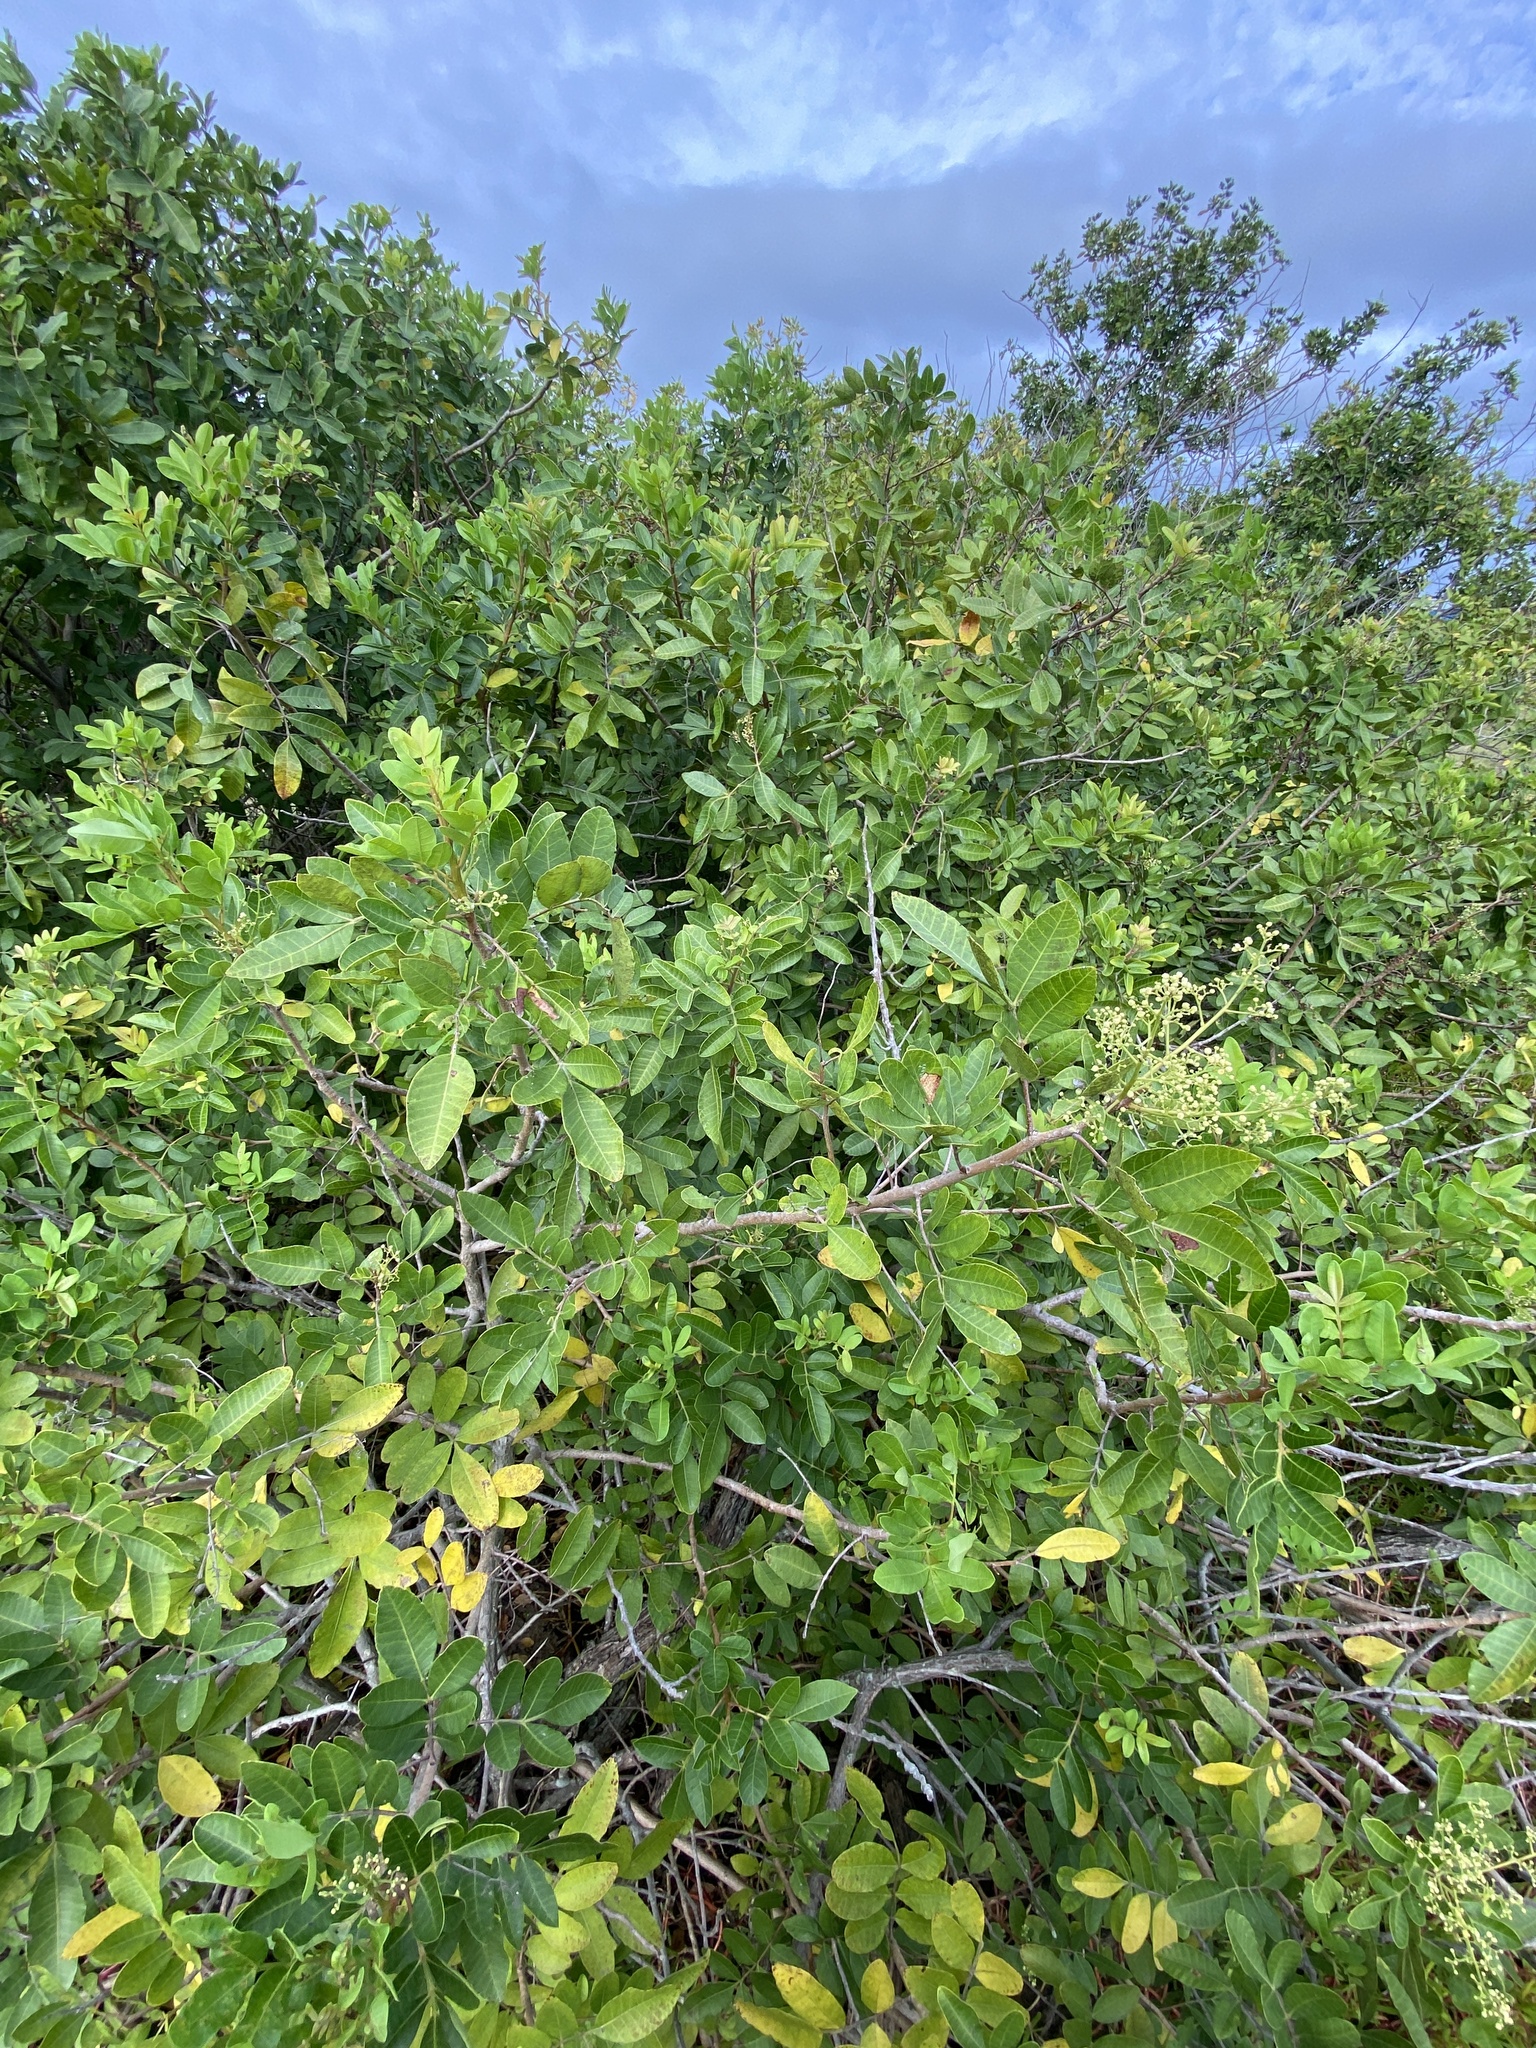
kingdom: Plantae
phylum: Tracheophyta
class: Magnoliopsida
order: Sapindales
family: Anacardiaceae
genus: Schinus
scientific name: Schinus terebinthifolia
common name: Brazilian peppertree
